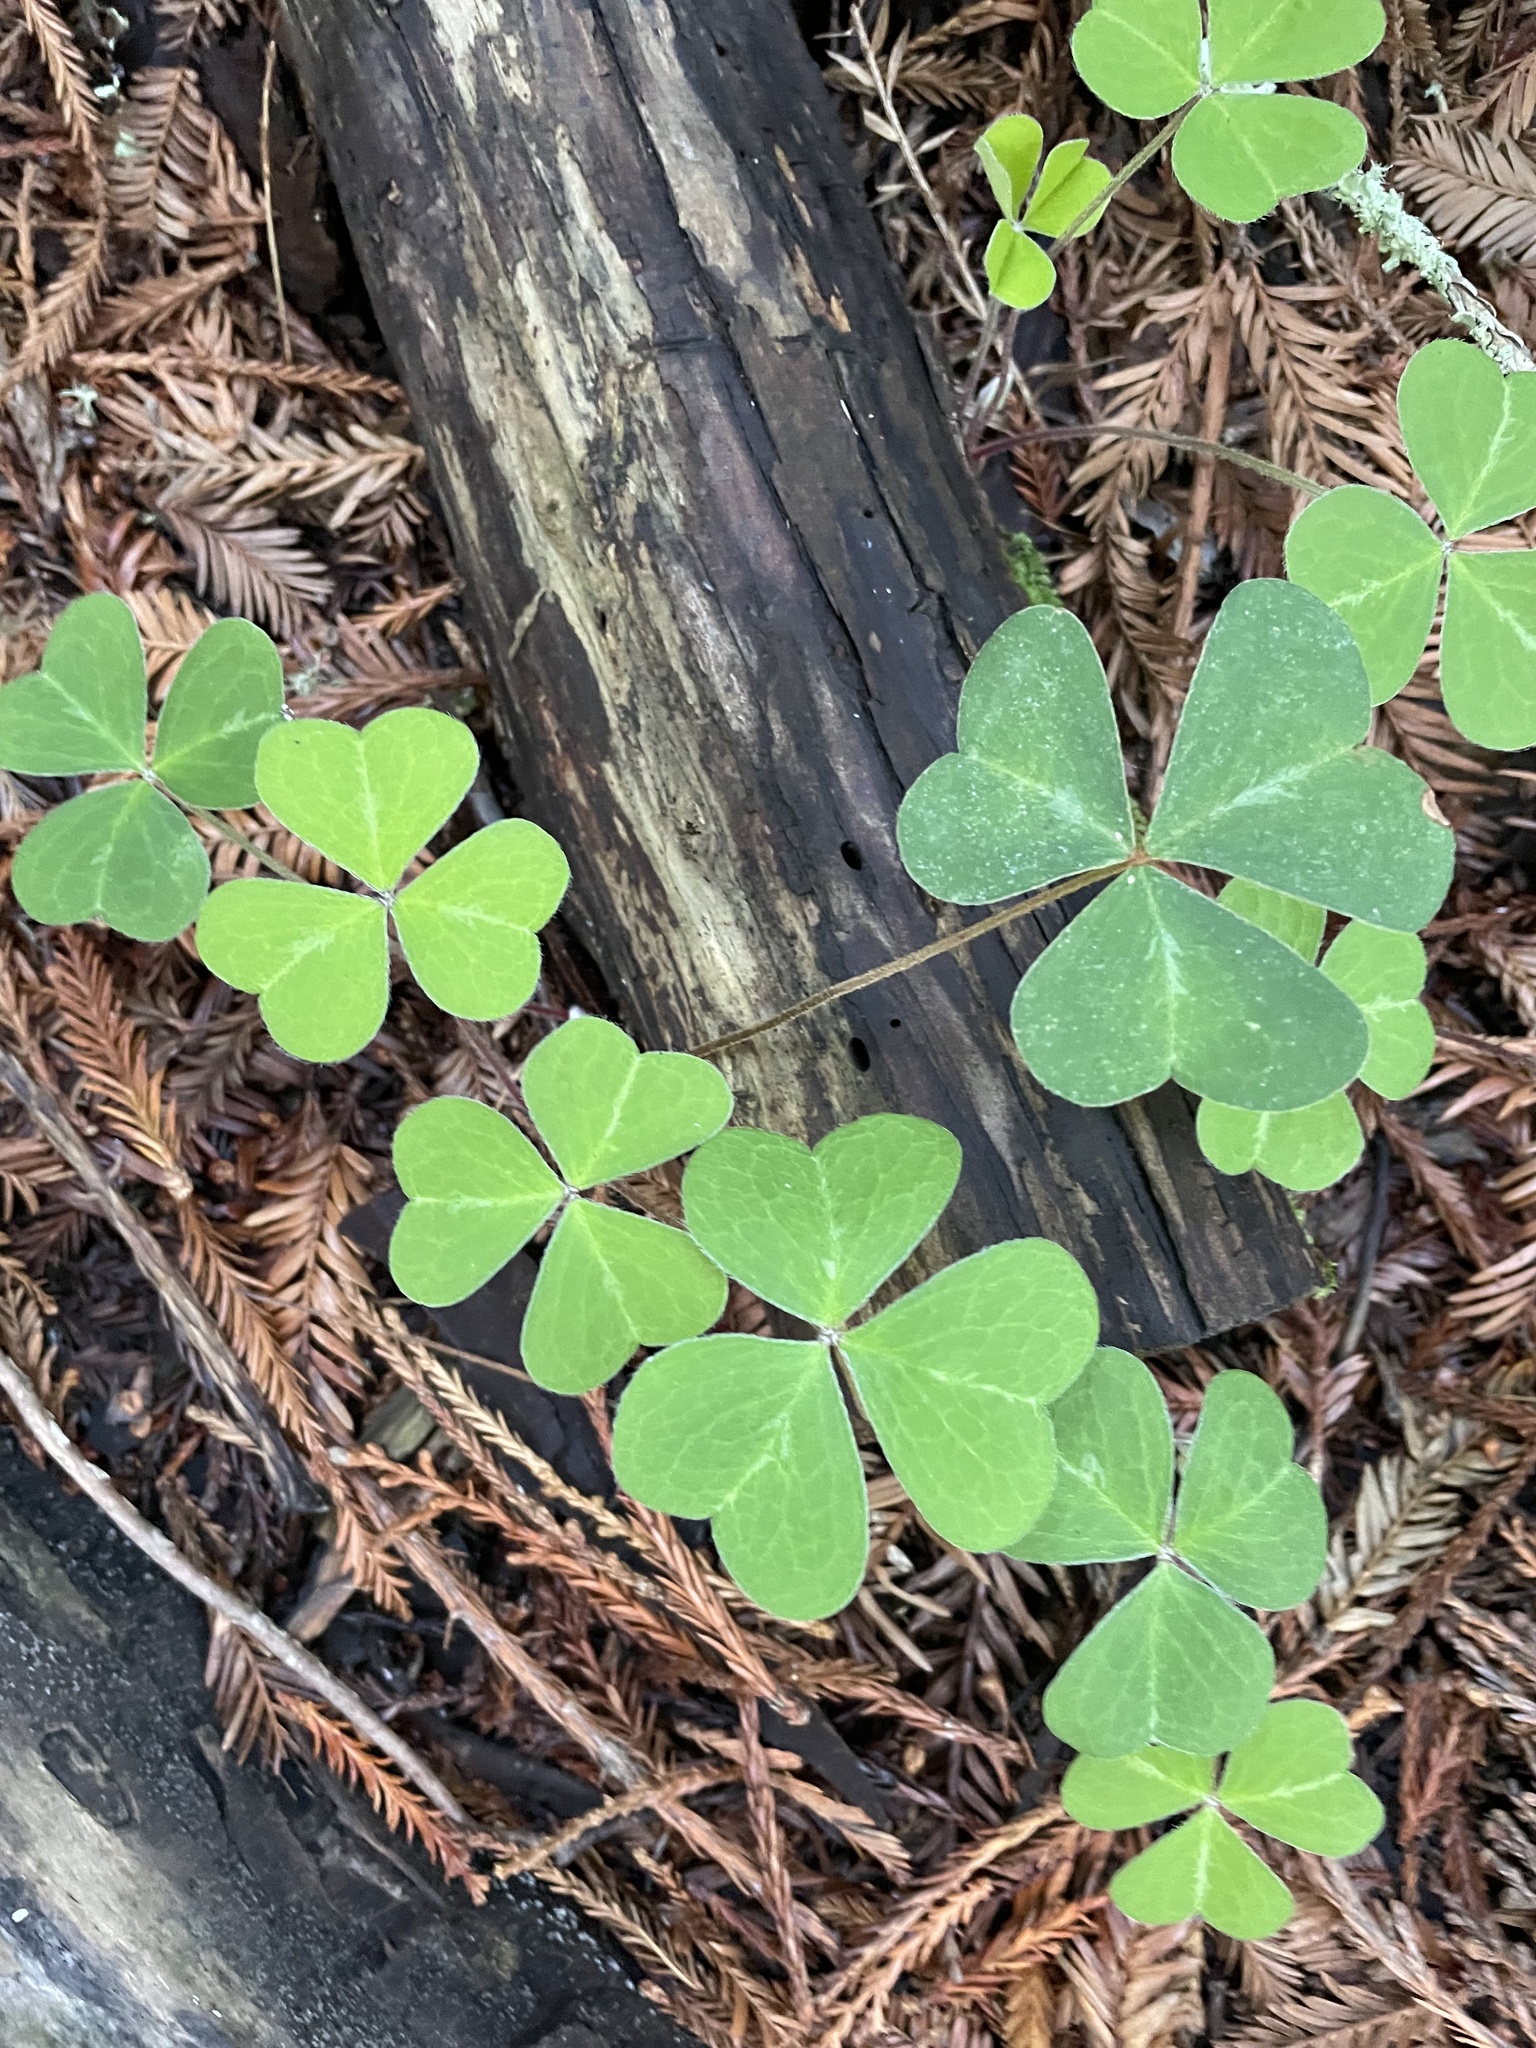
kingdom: Plantae
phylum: Tracheophyta
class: Magnoliopsida
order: Oxalidales
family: Oxalidaceae
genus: Oxalis
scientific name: Oxalis oregana
